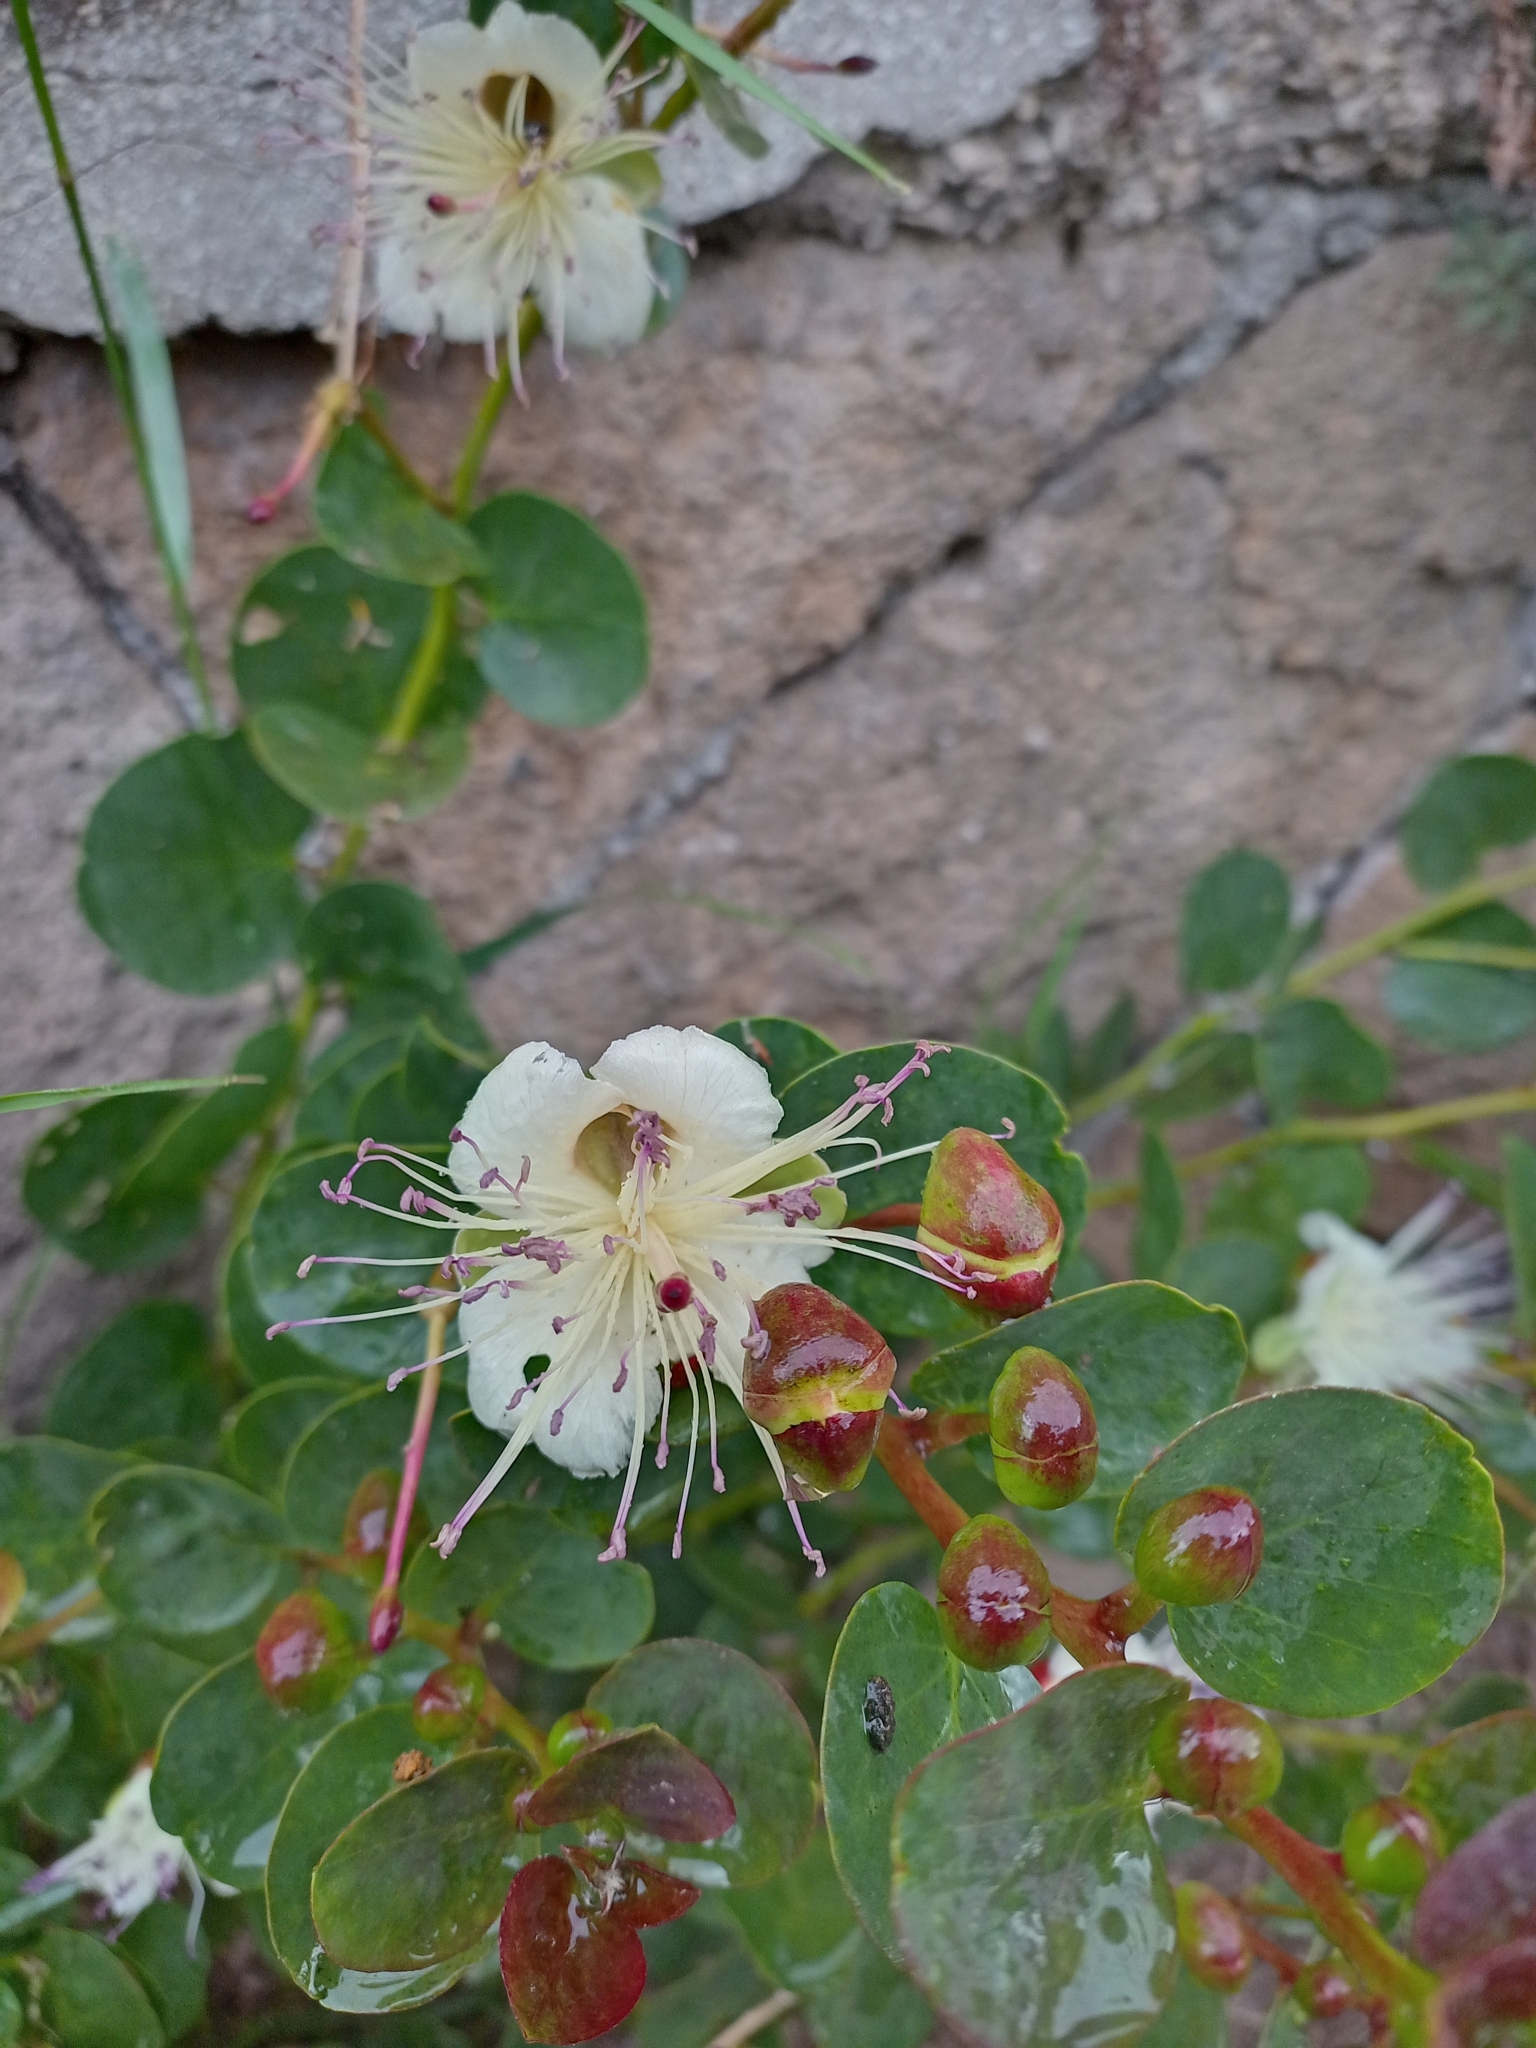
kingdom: Plantae
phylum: Tracheophyta
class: Magnoliopsida
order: Brassicales
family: Capparaceae
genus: Capparis
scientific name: Capparis orientalis
